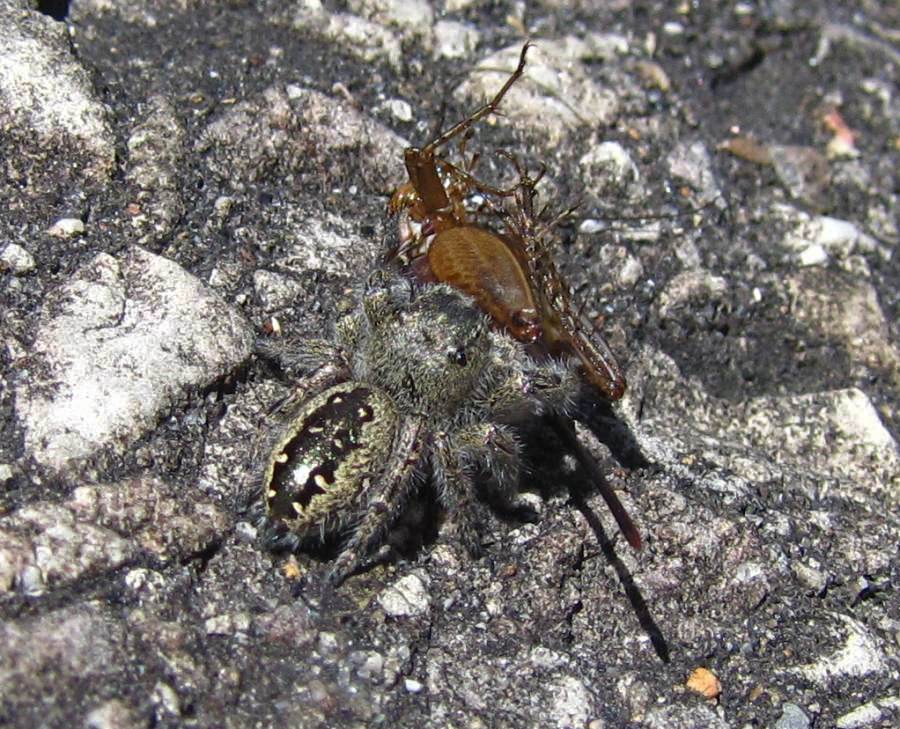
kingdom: Animalia
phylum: Arthropoda
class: Arachnida
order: Araneae
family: Salticidae
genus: Phidippus
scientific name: Phidippus purpuratus
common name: Marbled purple jumping spider
